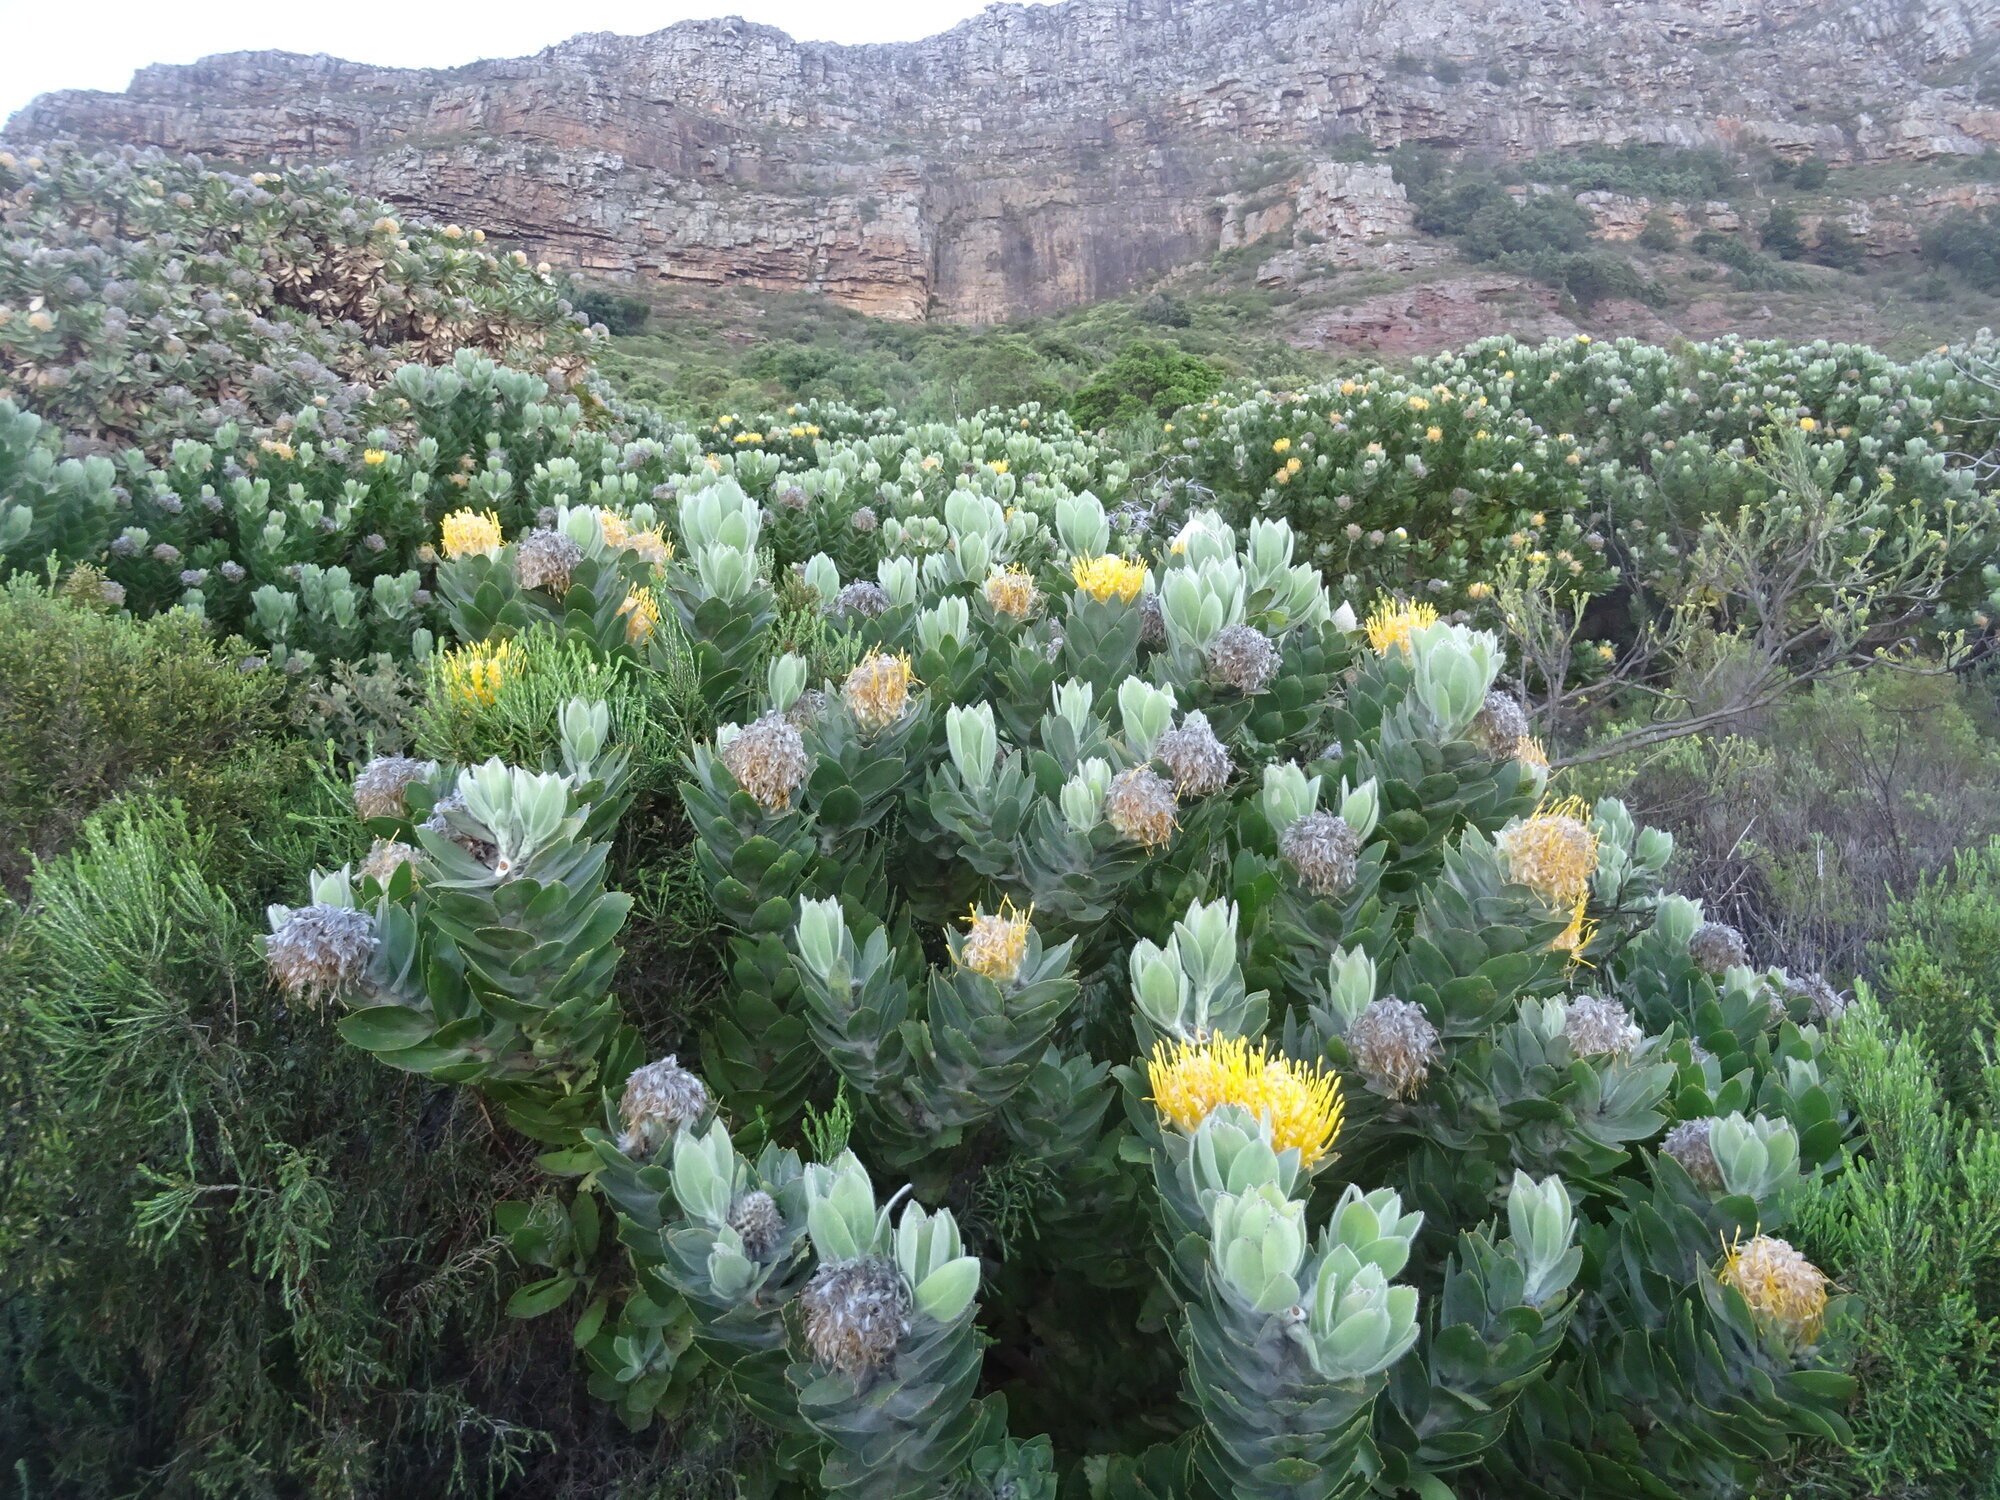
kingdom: Plantae
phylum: Tracheophyta
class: Magnoliopsida
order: Proteales
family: Proteaceae
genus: Leucospermum
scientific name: Leucospermum conocarpodendron
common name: Tree pincushion
